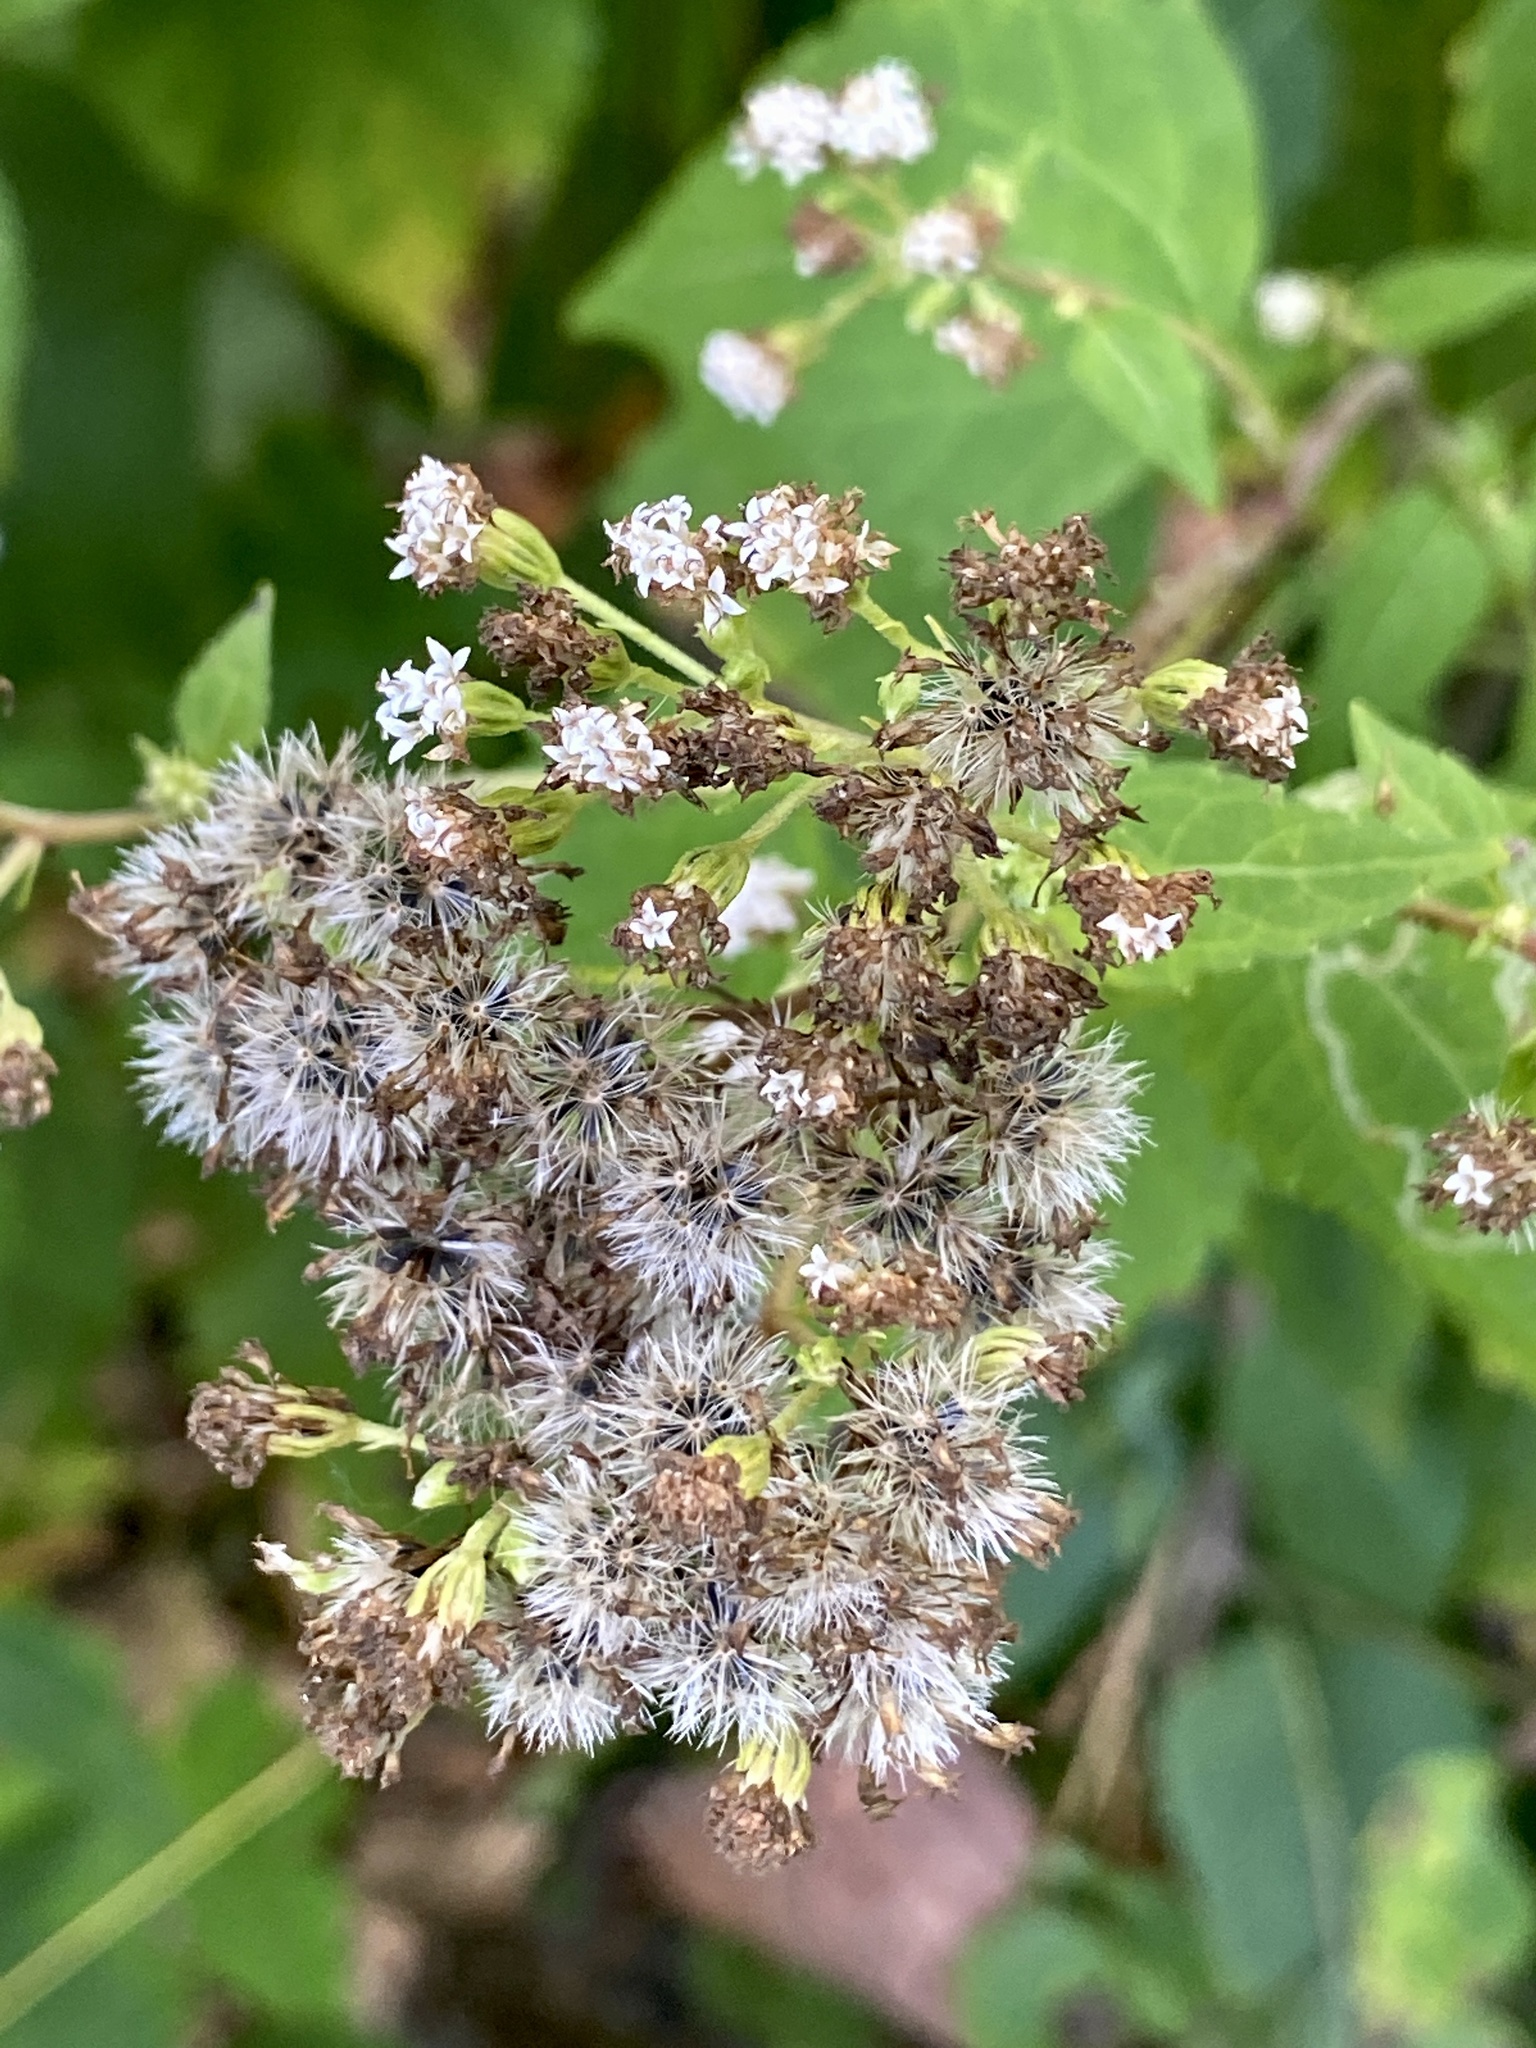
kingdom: Plantae
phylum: Tracheophyta
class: Magnoliopsida
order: Asterales
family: Asteraceae
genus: Ageratina
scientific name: Ageratina altissima
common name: White snakeroot
